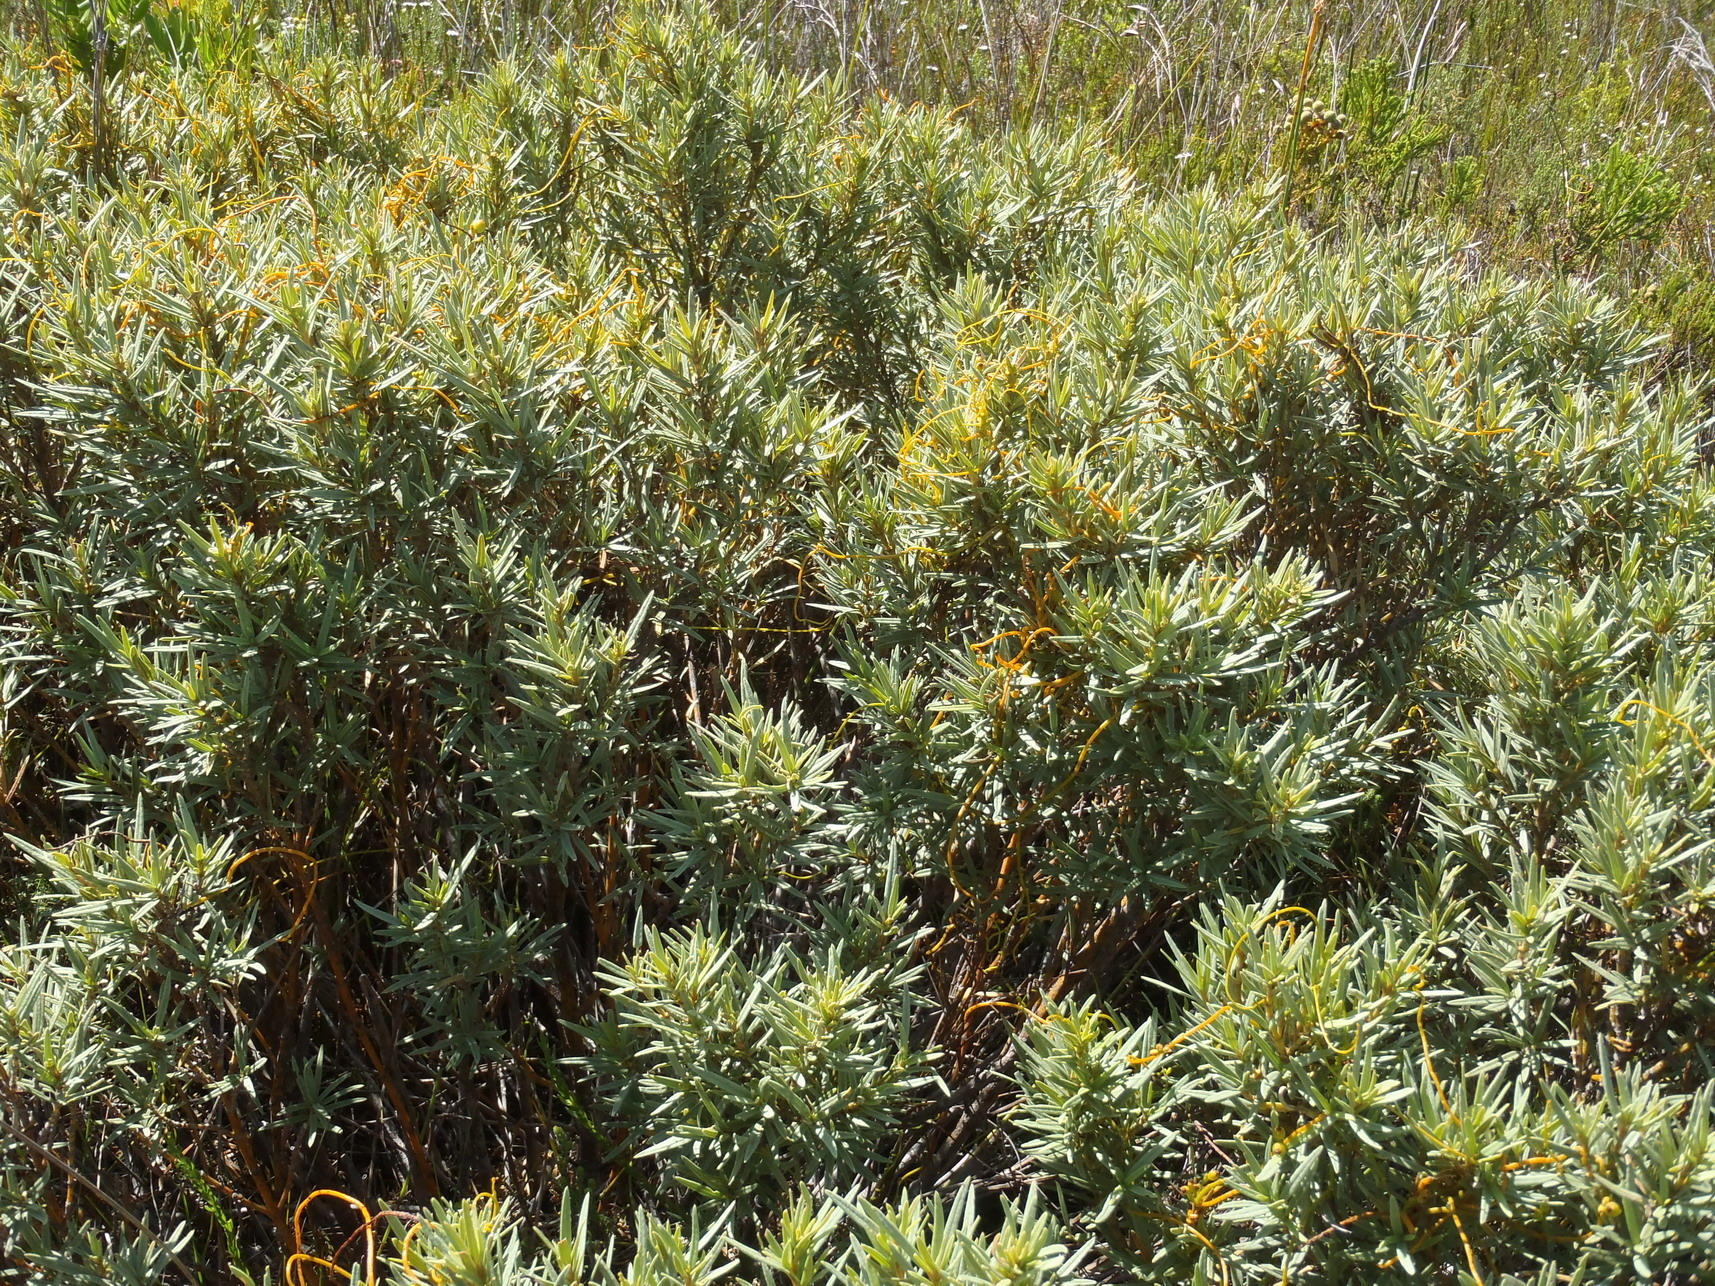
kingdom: Plantae
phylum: Tracheophyta
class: Magnoliopsida
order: Cornales
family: Grubbiaceae
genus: Grubbia
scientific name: Grubbia tomentosa
